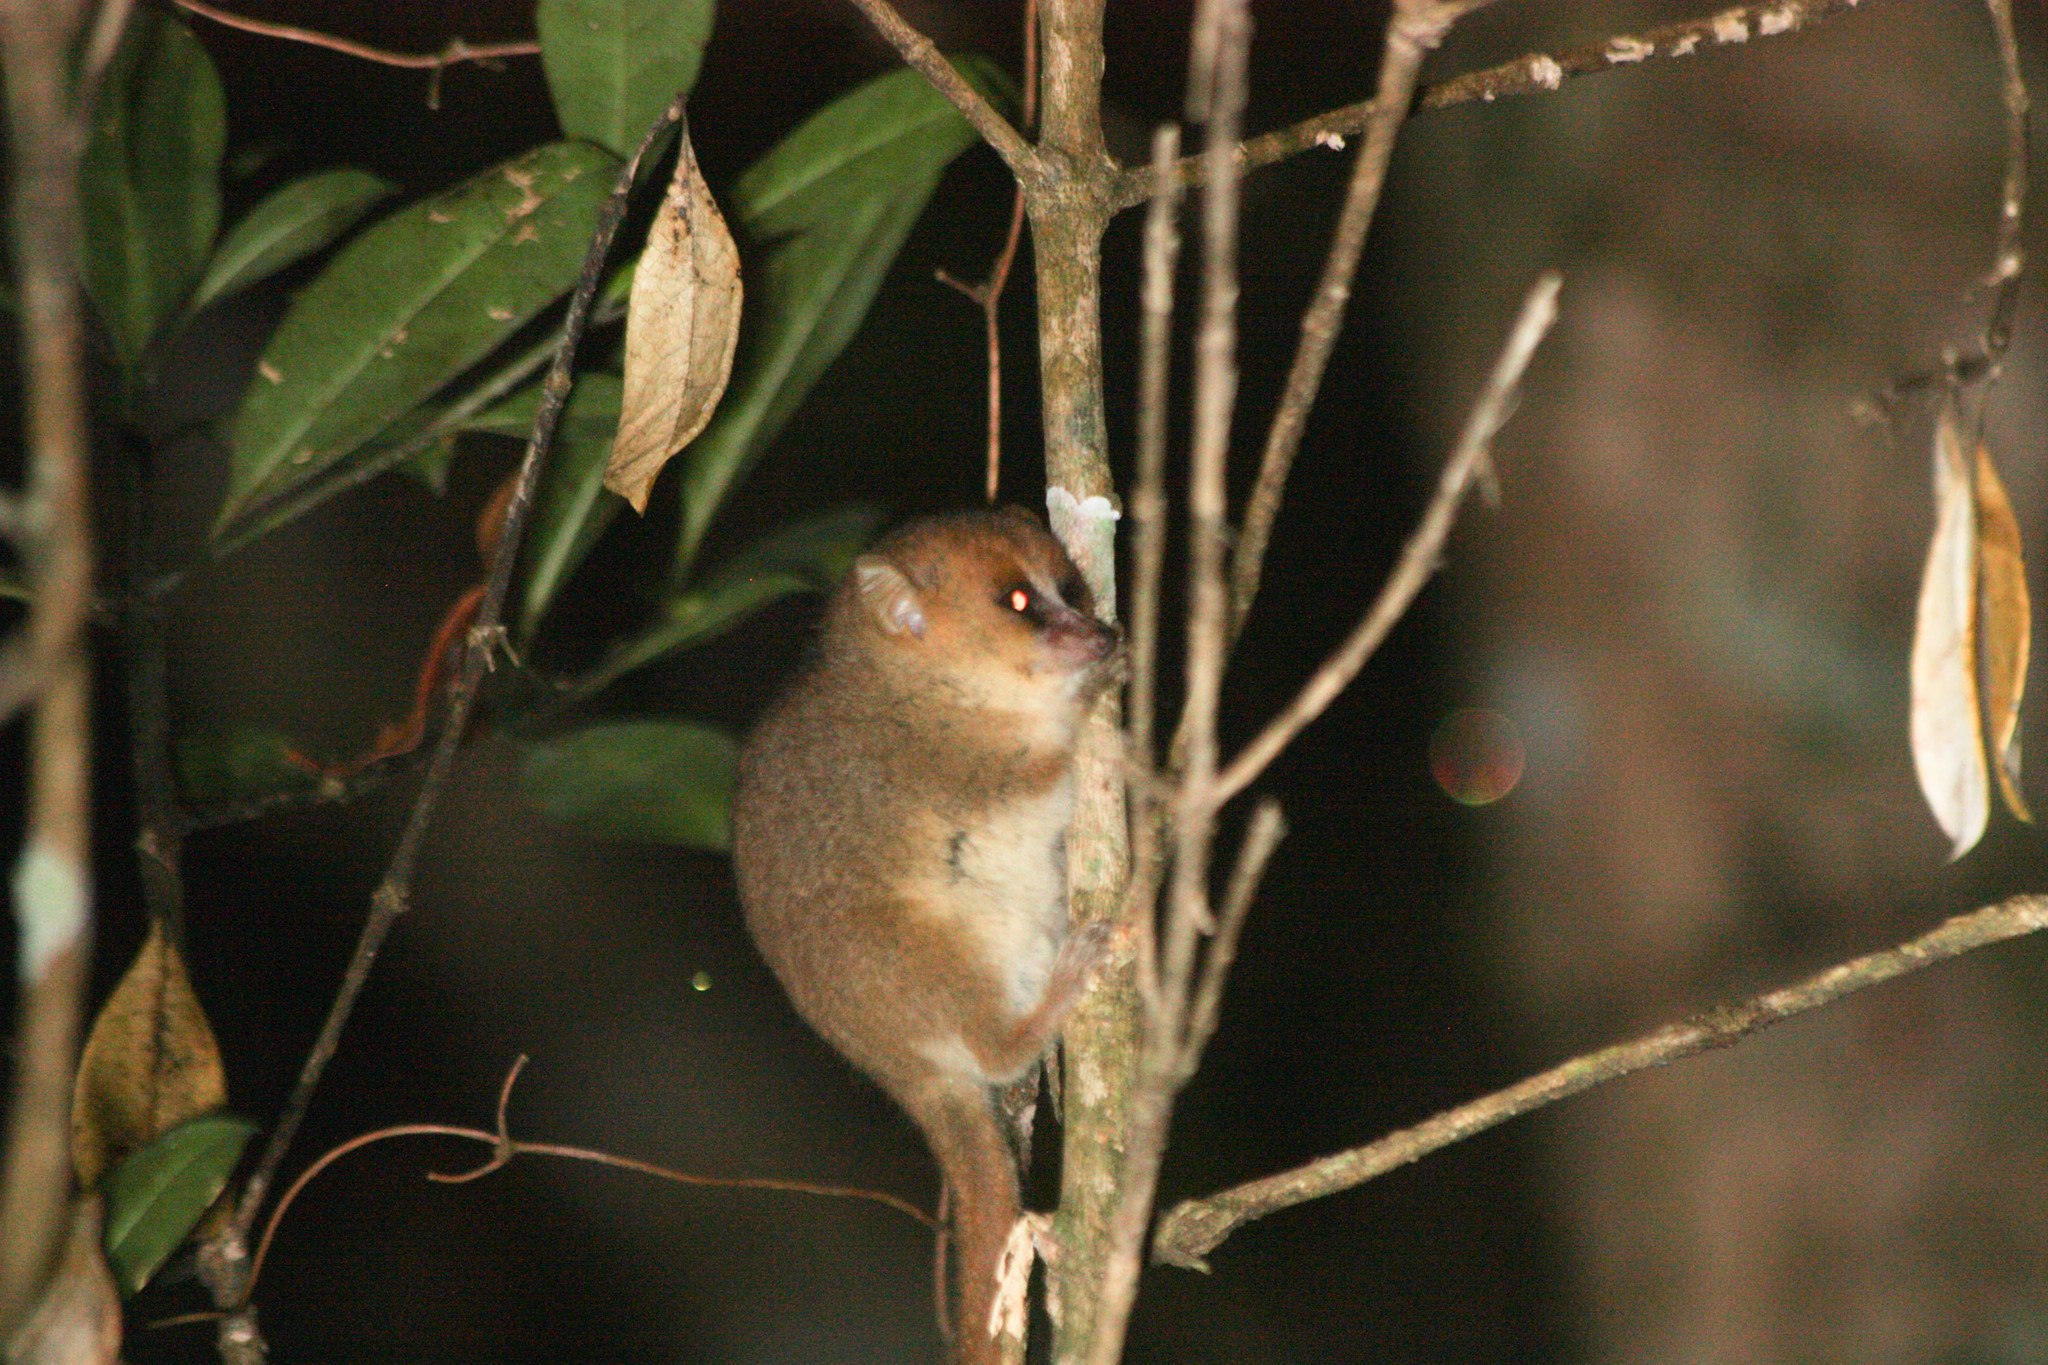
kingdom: Animalia
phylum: Chordata
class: Mammalia
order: Primates
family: Cheirogaleidae
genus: Microcebus
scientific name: Microcebus lehilahytsara
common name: Goodman's mouse lemur
